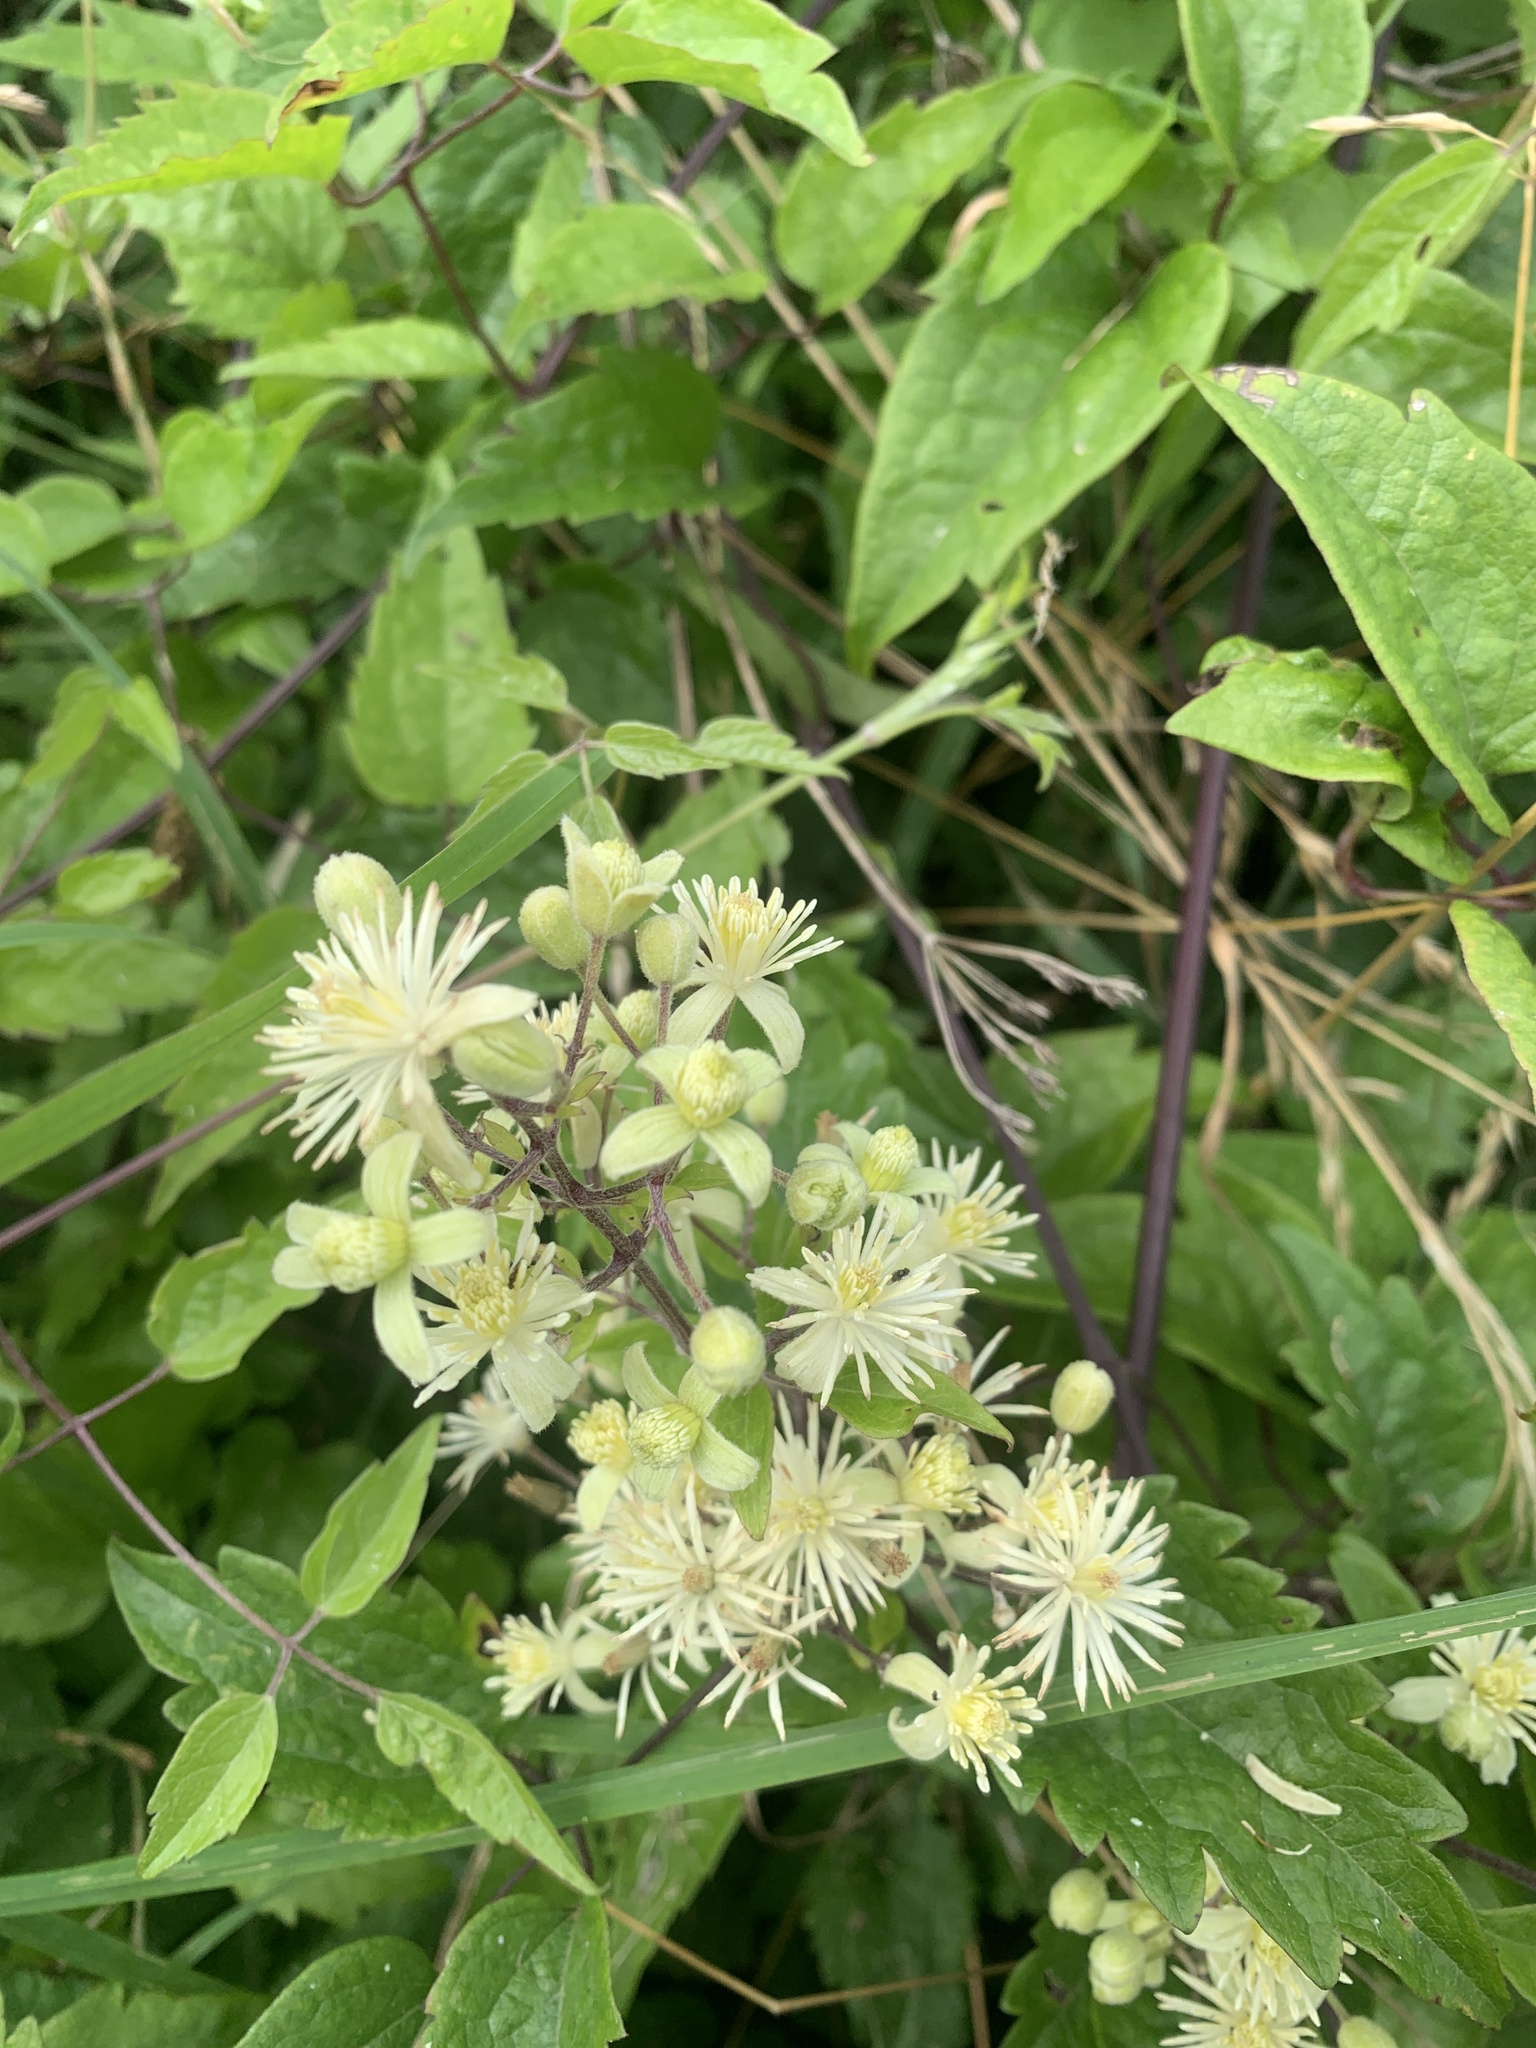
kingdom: Plantae
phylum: Tracheophyta
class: Magnoliopsida
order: Ranunculales
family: Ranunculaceae
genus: Clematis
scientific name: Clematis vitalba
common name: Evergreen clematis
